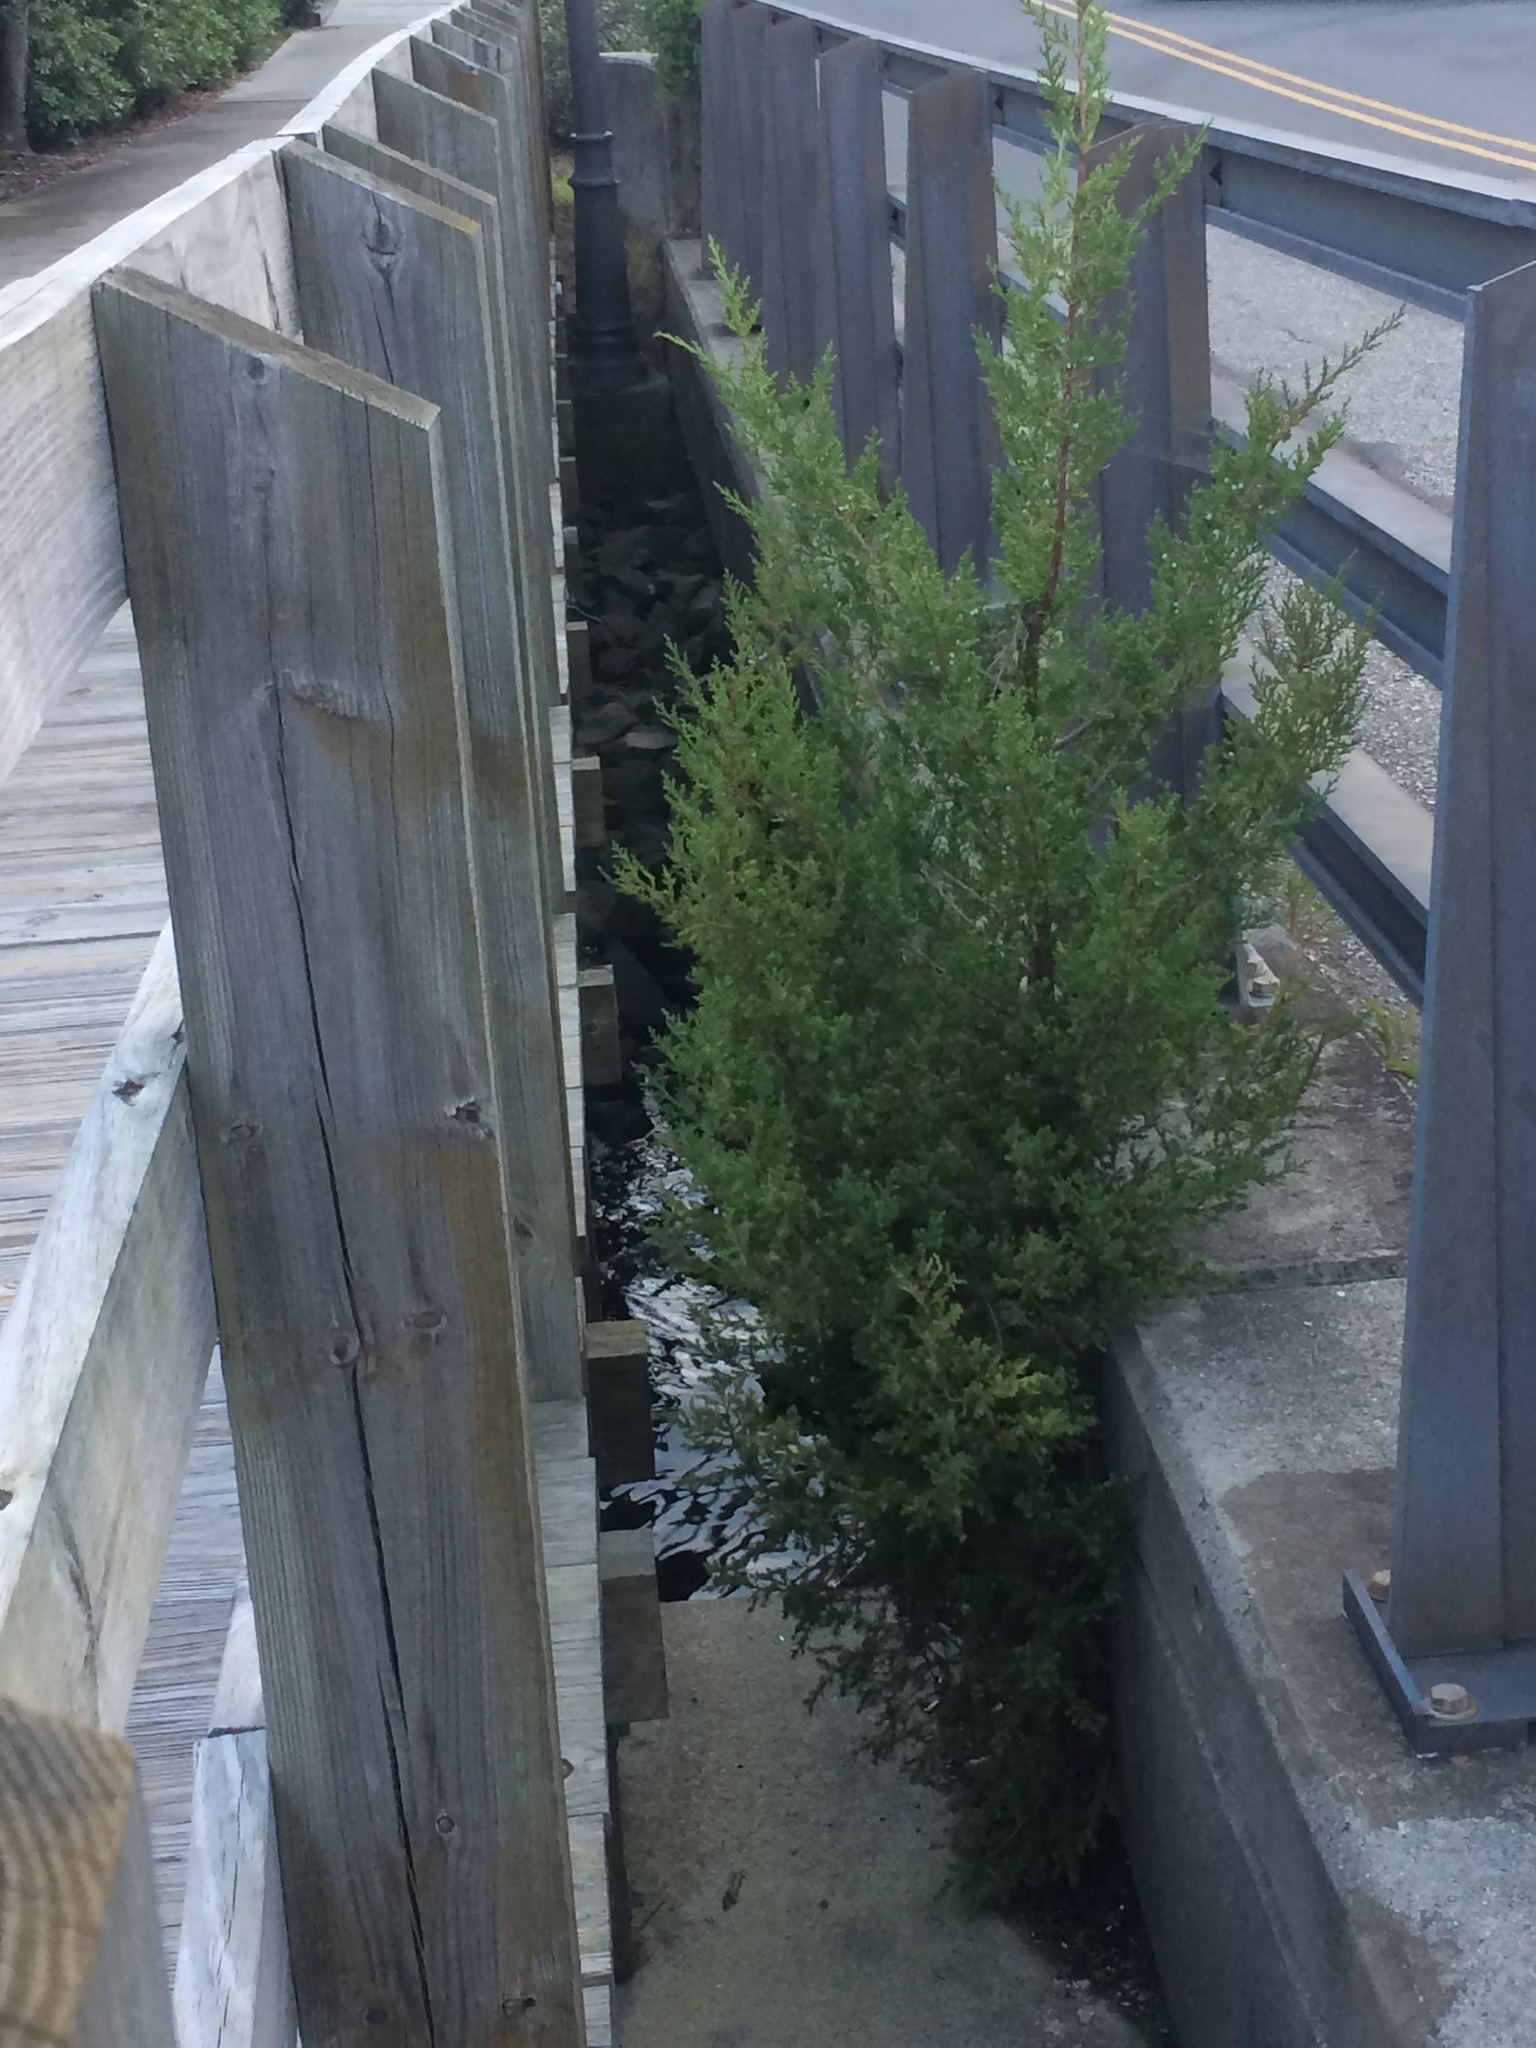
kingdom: Plantae
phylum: Tracheophyta
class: Pinopsida
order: Pinales
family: Cupressaceae
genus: Juniperus
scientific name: Juniperus virginiana
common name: Red juniper
